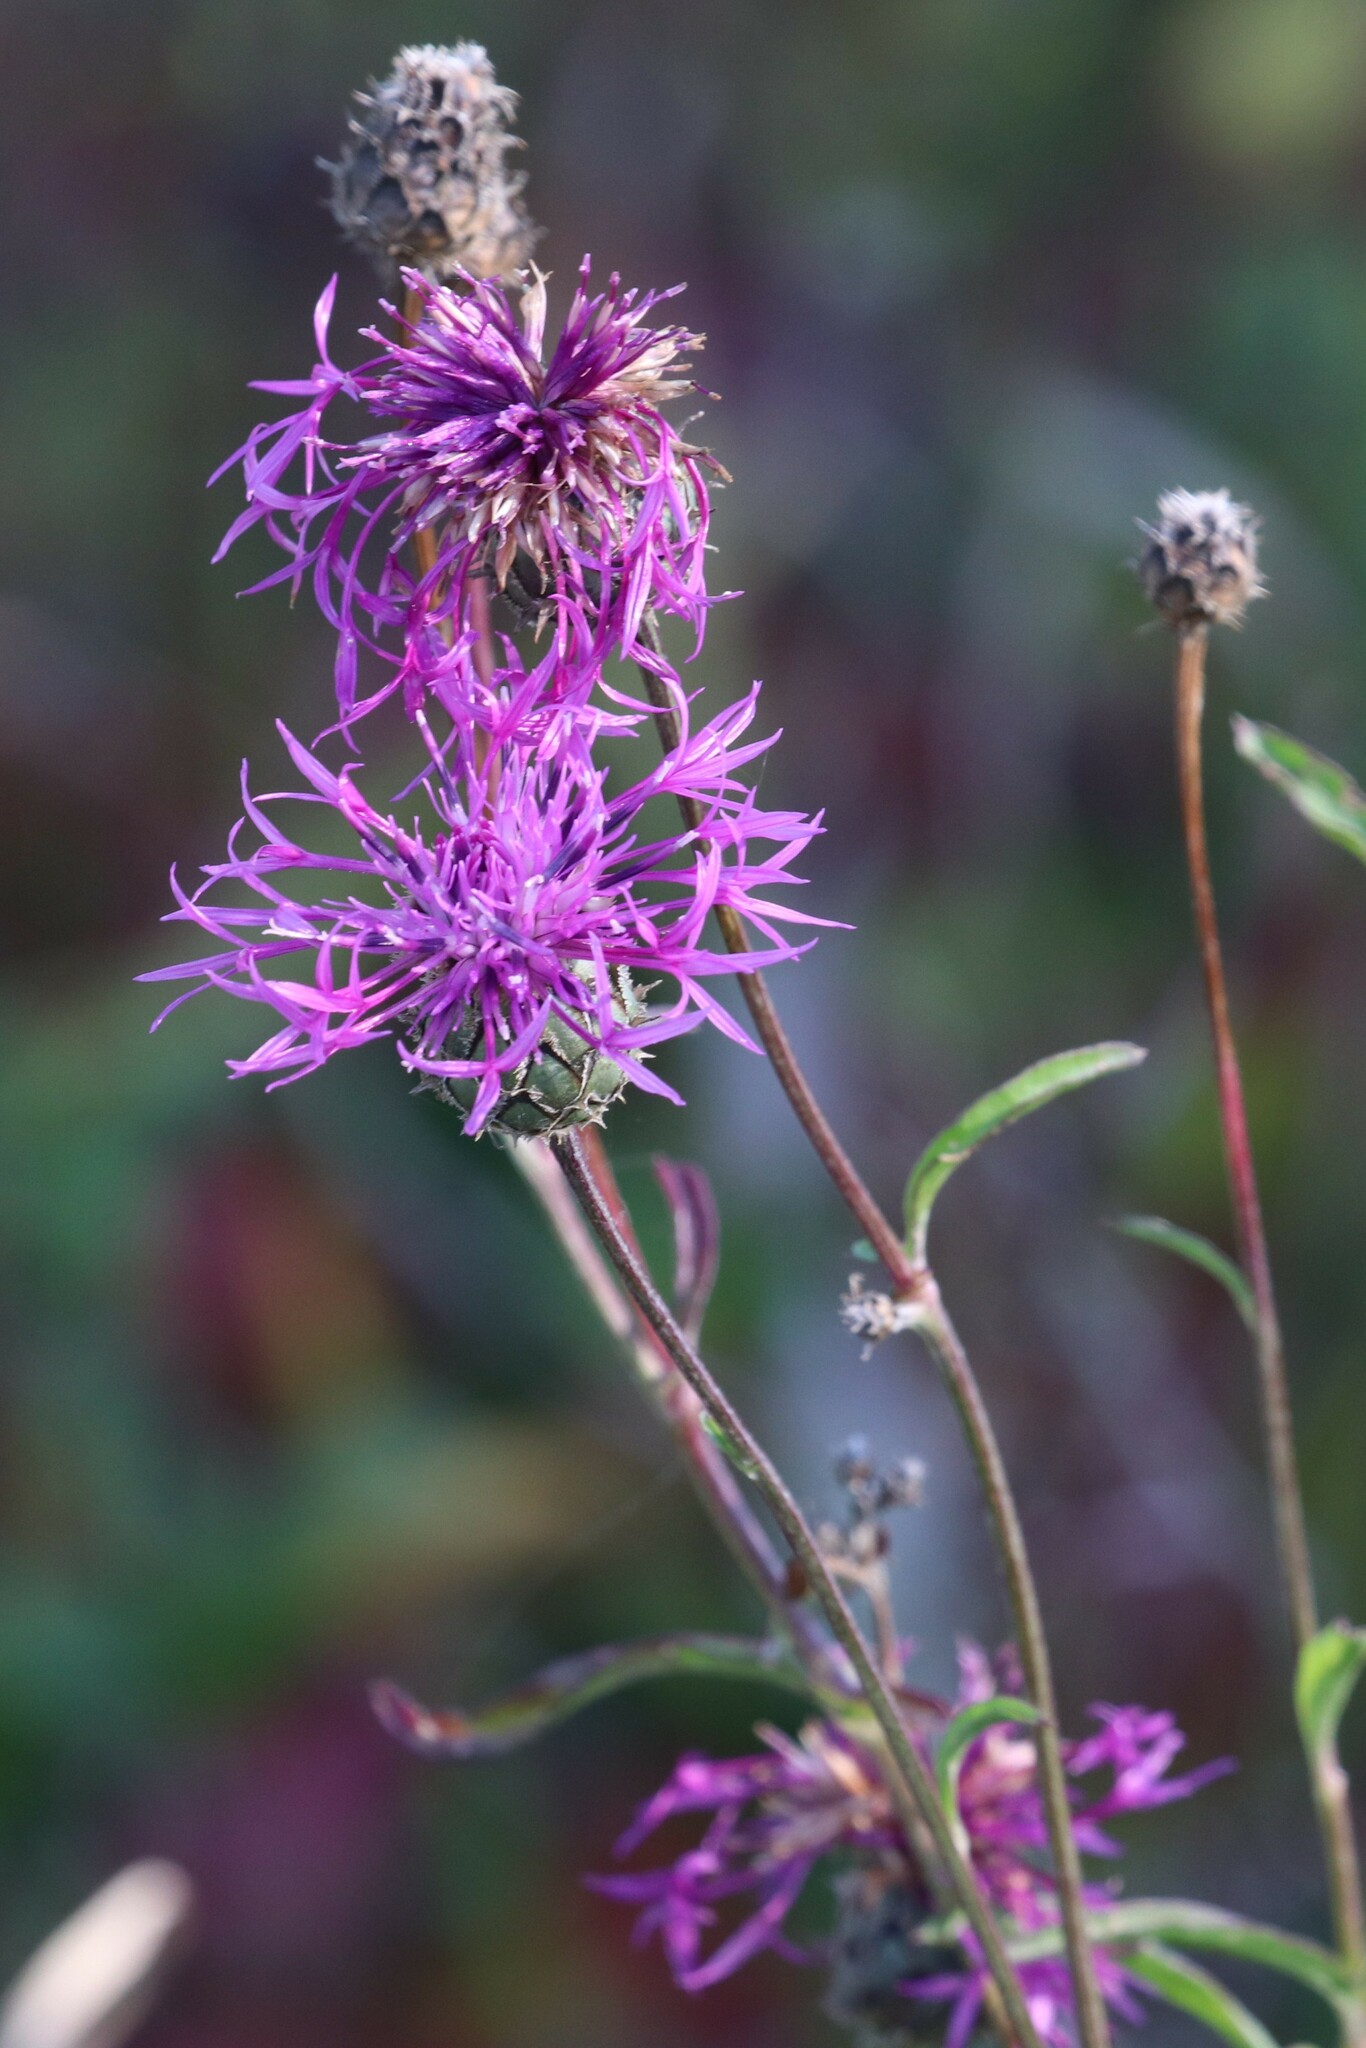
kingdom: Plantae
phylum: Tracheophyta
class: Magnoliopsida
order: Asterales
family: Asteraceae
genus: Centaurea
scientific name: Centaurea scabiosa
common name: Greater knapweed
